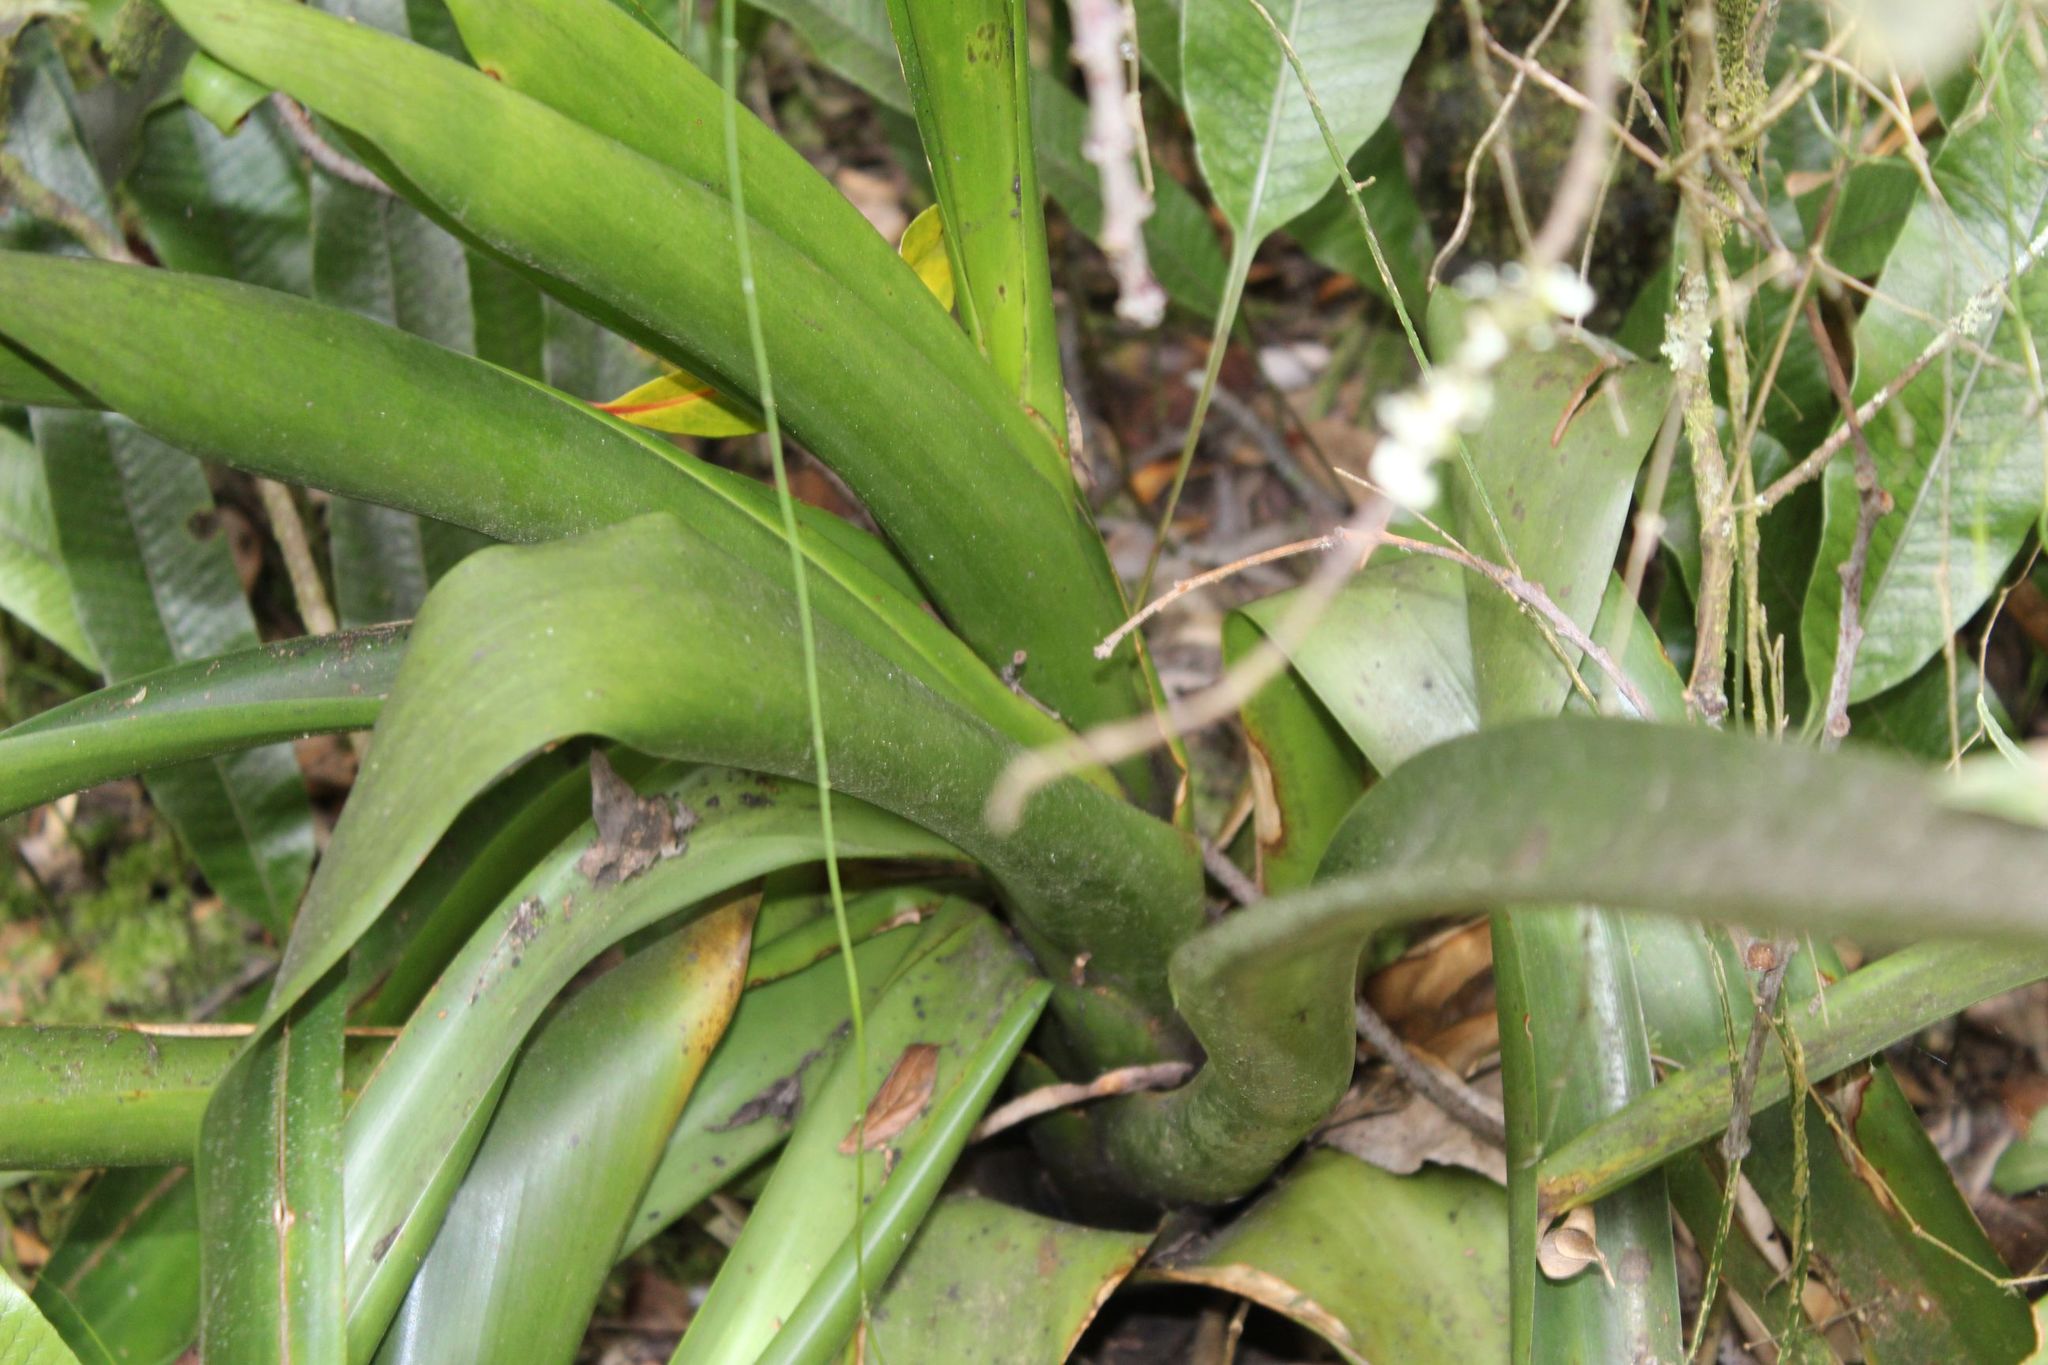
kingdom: Plantae
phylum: Tracheophyta
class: Liliopsida
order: Poales
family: Bromeliaceae
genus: Tillandsia
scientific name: Tillandsia denudata
